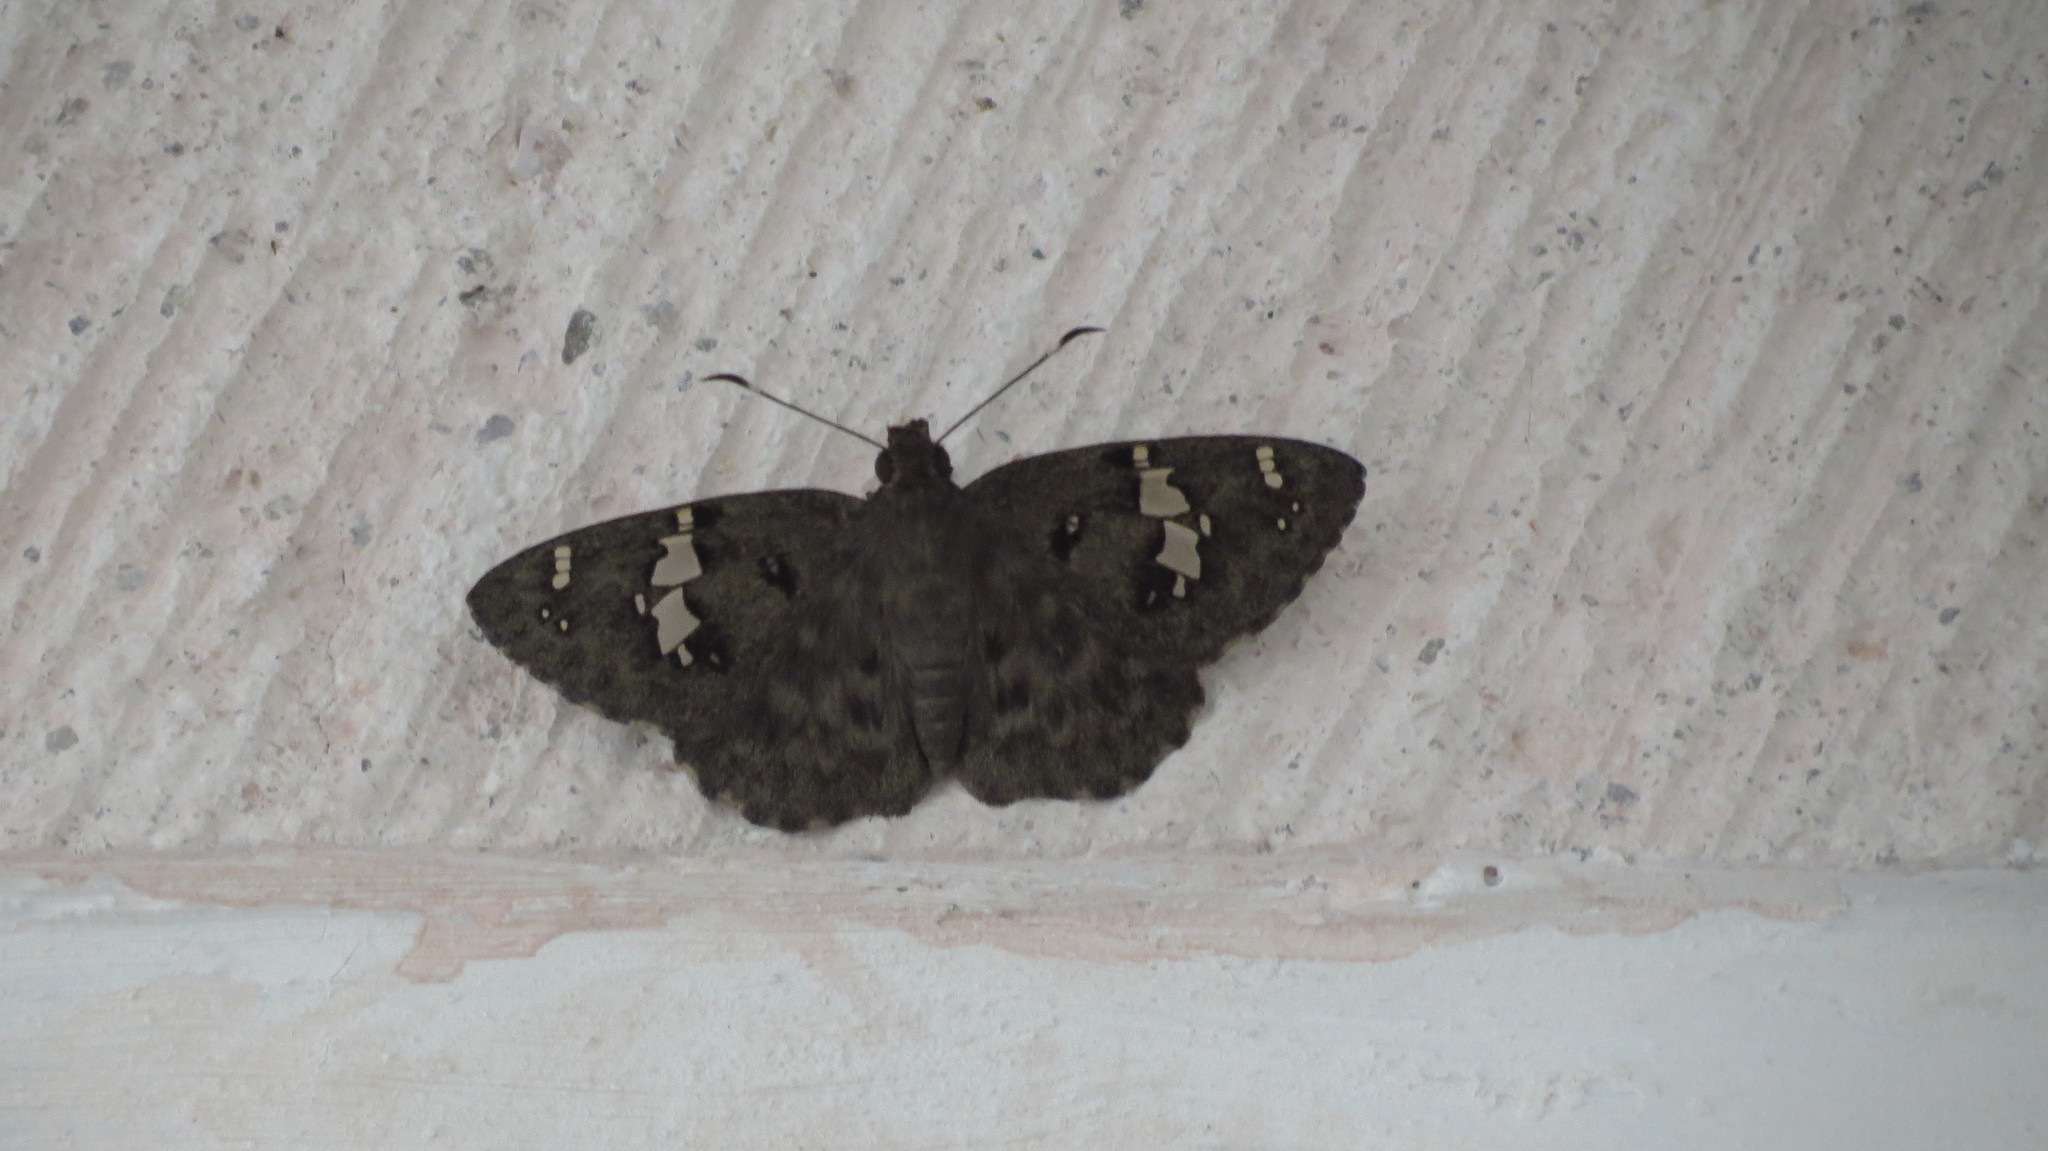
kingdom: Animalia
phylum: Arthropoda
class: Insecta
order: Lepidoptera
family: Hesperiidae
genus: Celaenorrhinus
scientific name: Celaenorrhinus fritzgaertneri
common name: Fritzgaertner's flat
